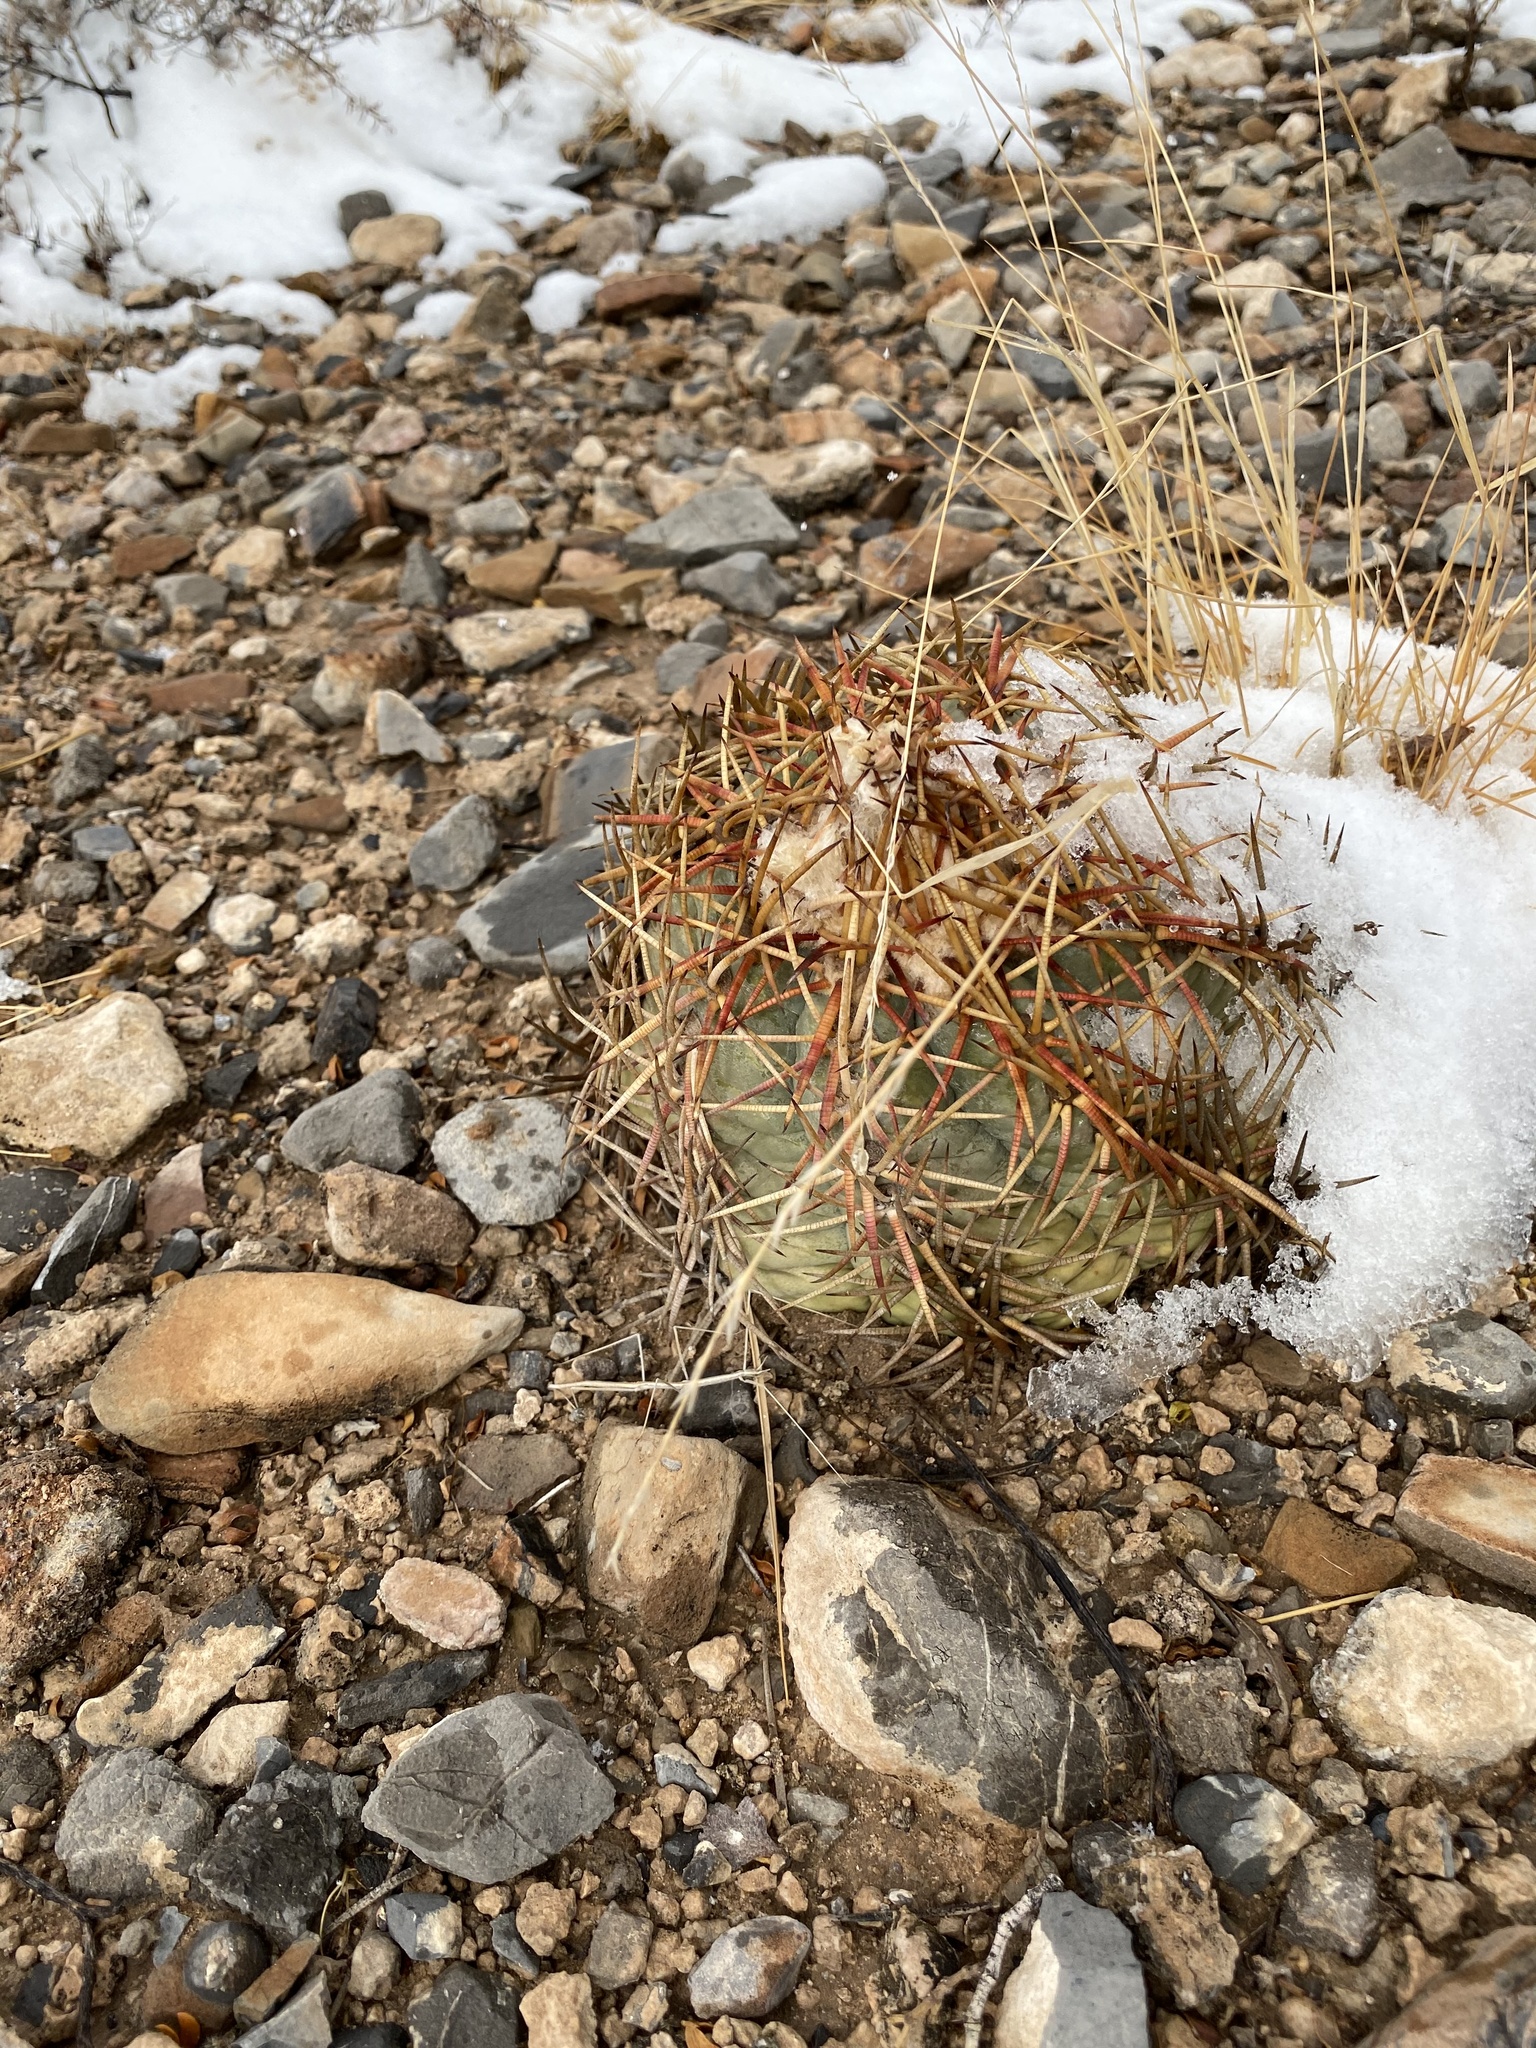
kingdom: Plantae
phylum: Tracheophyta
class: Magnoliopsida
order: Caryophyllales
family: Cactaceae
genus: Echinocactus
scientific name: Echinocactus horizonthalonius
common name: Devilshead
